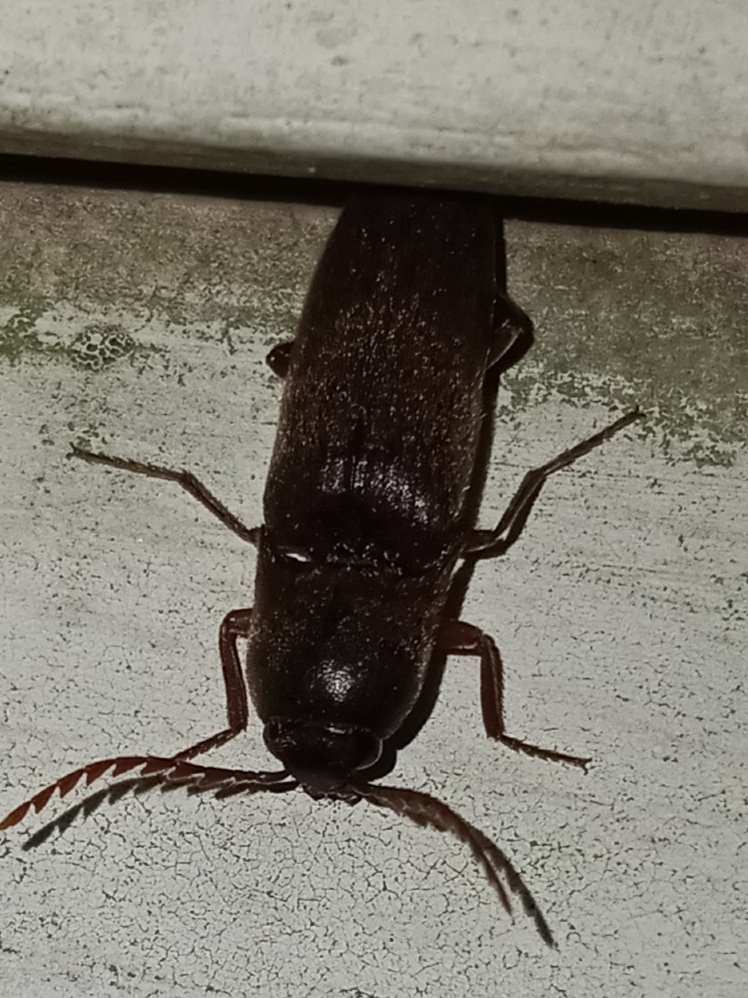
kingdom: Animalia
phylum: Arthropoda
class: Insecta
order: Coleoptera
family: Elateridae
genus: Diplostethus
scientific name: Diplostethus
